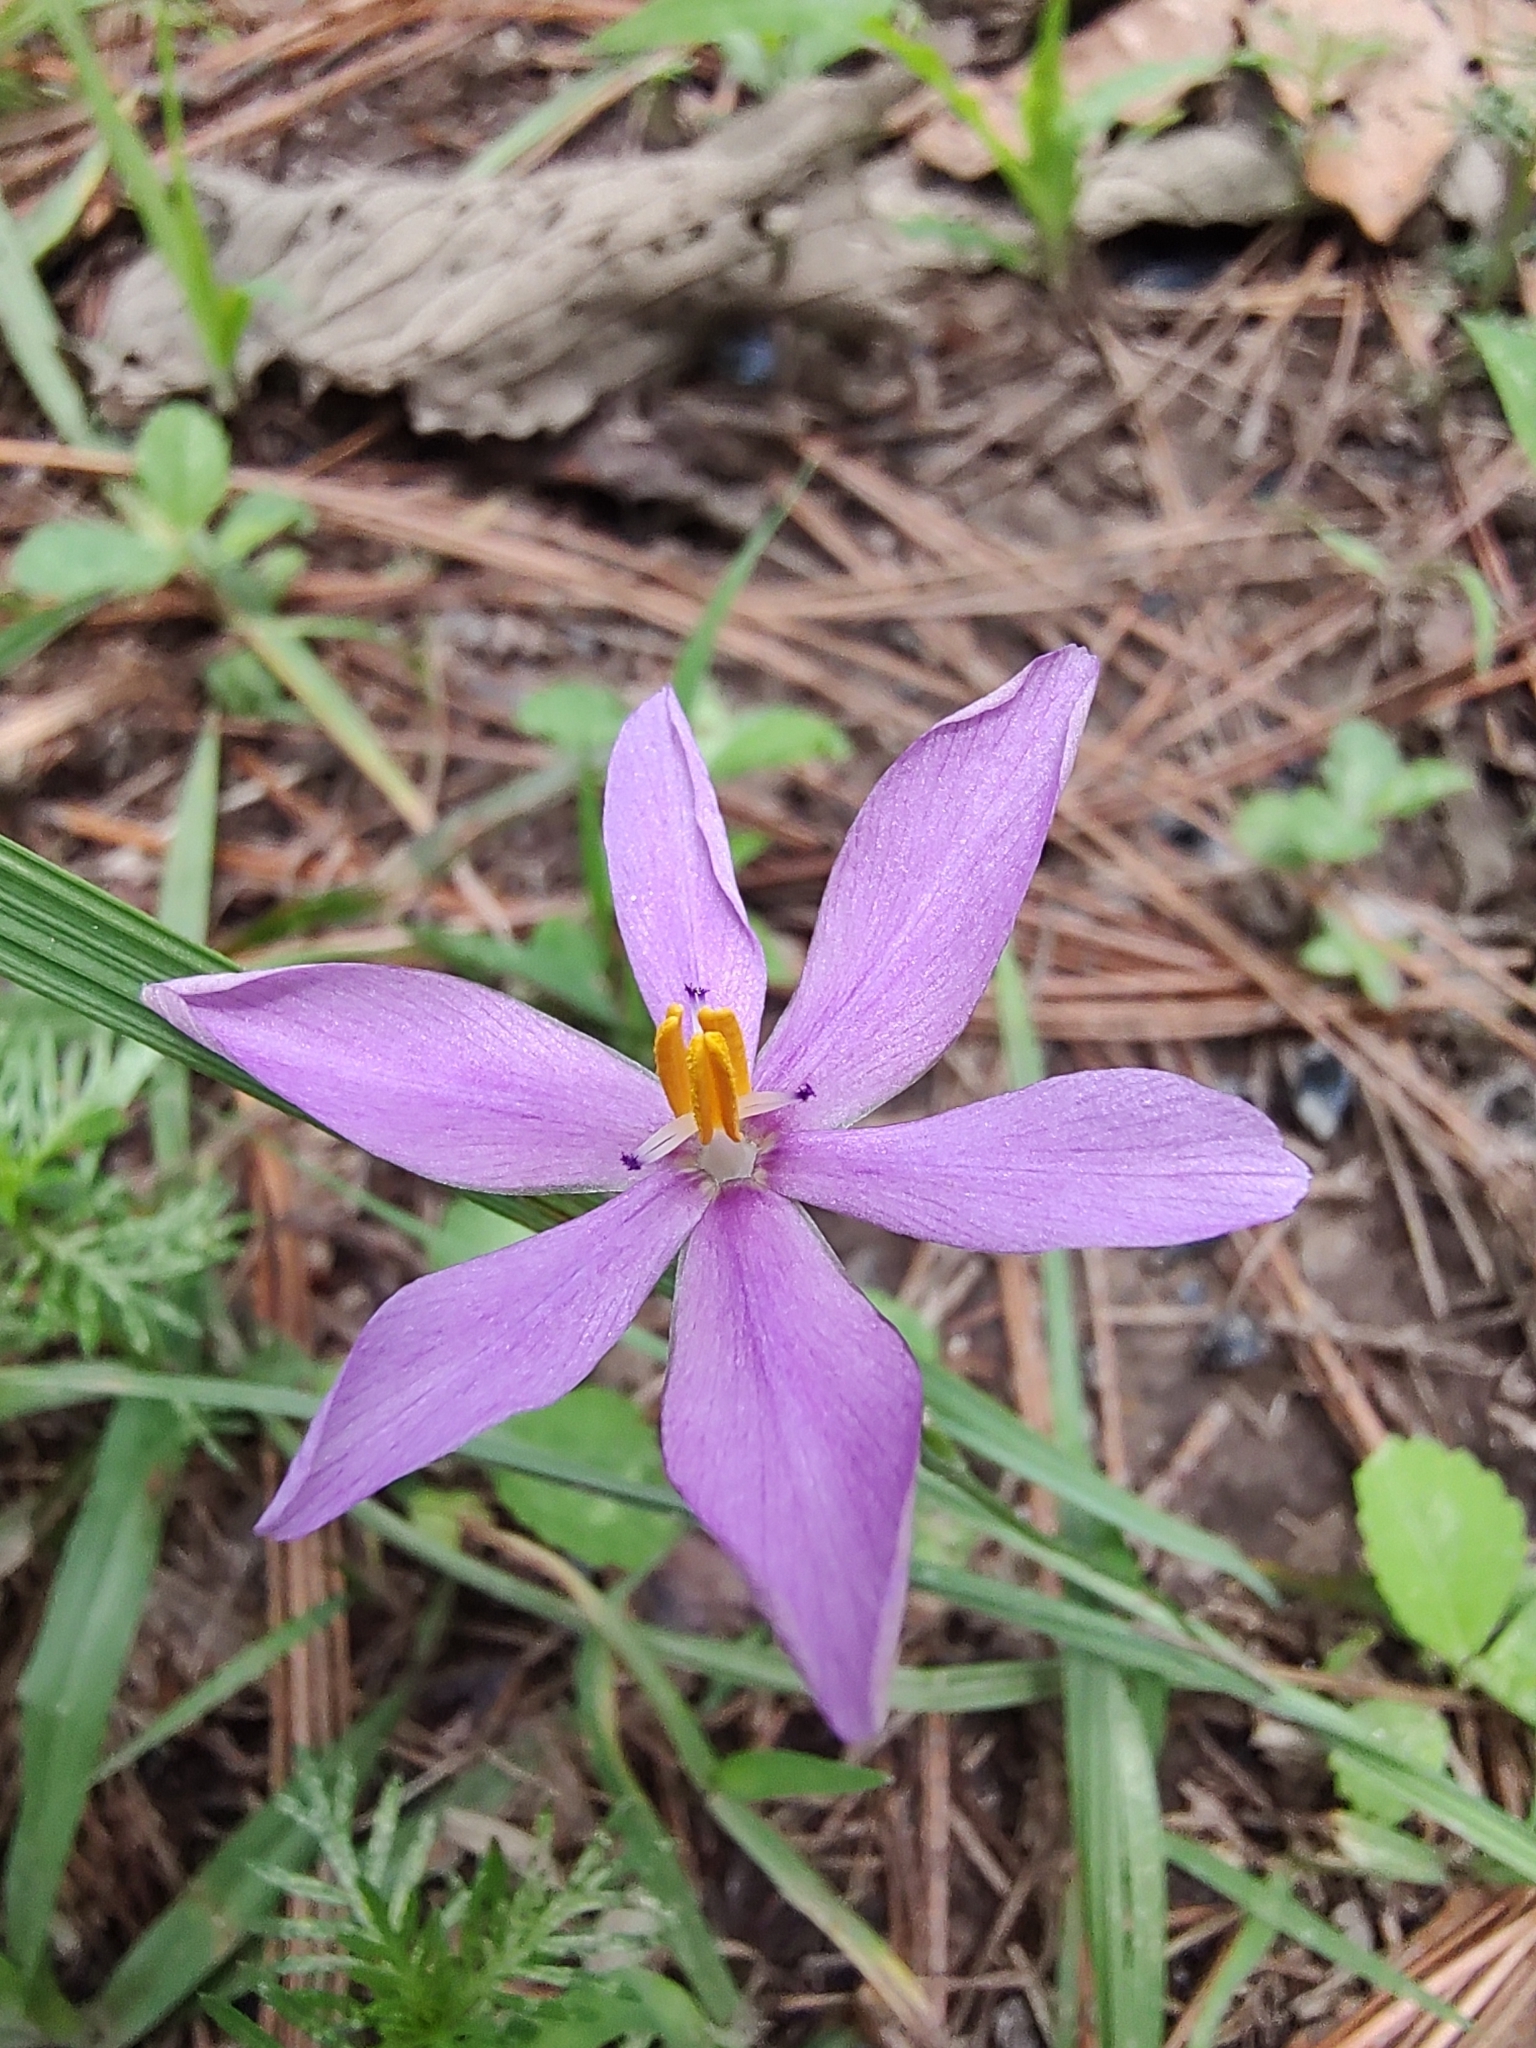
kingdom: Plantae
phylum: Tracheophyta
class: Liliopsida
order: Asparagales
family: Iridaceae
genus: Nemastylis
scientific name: Nemastylis tenuis
